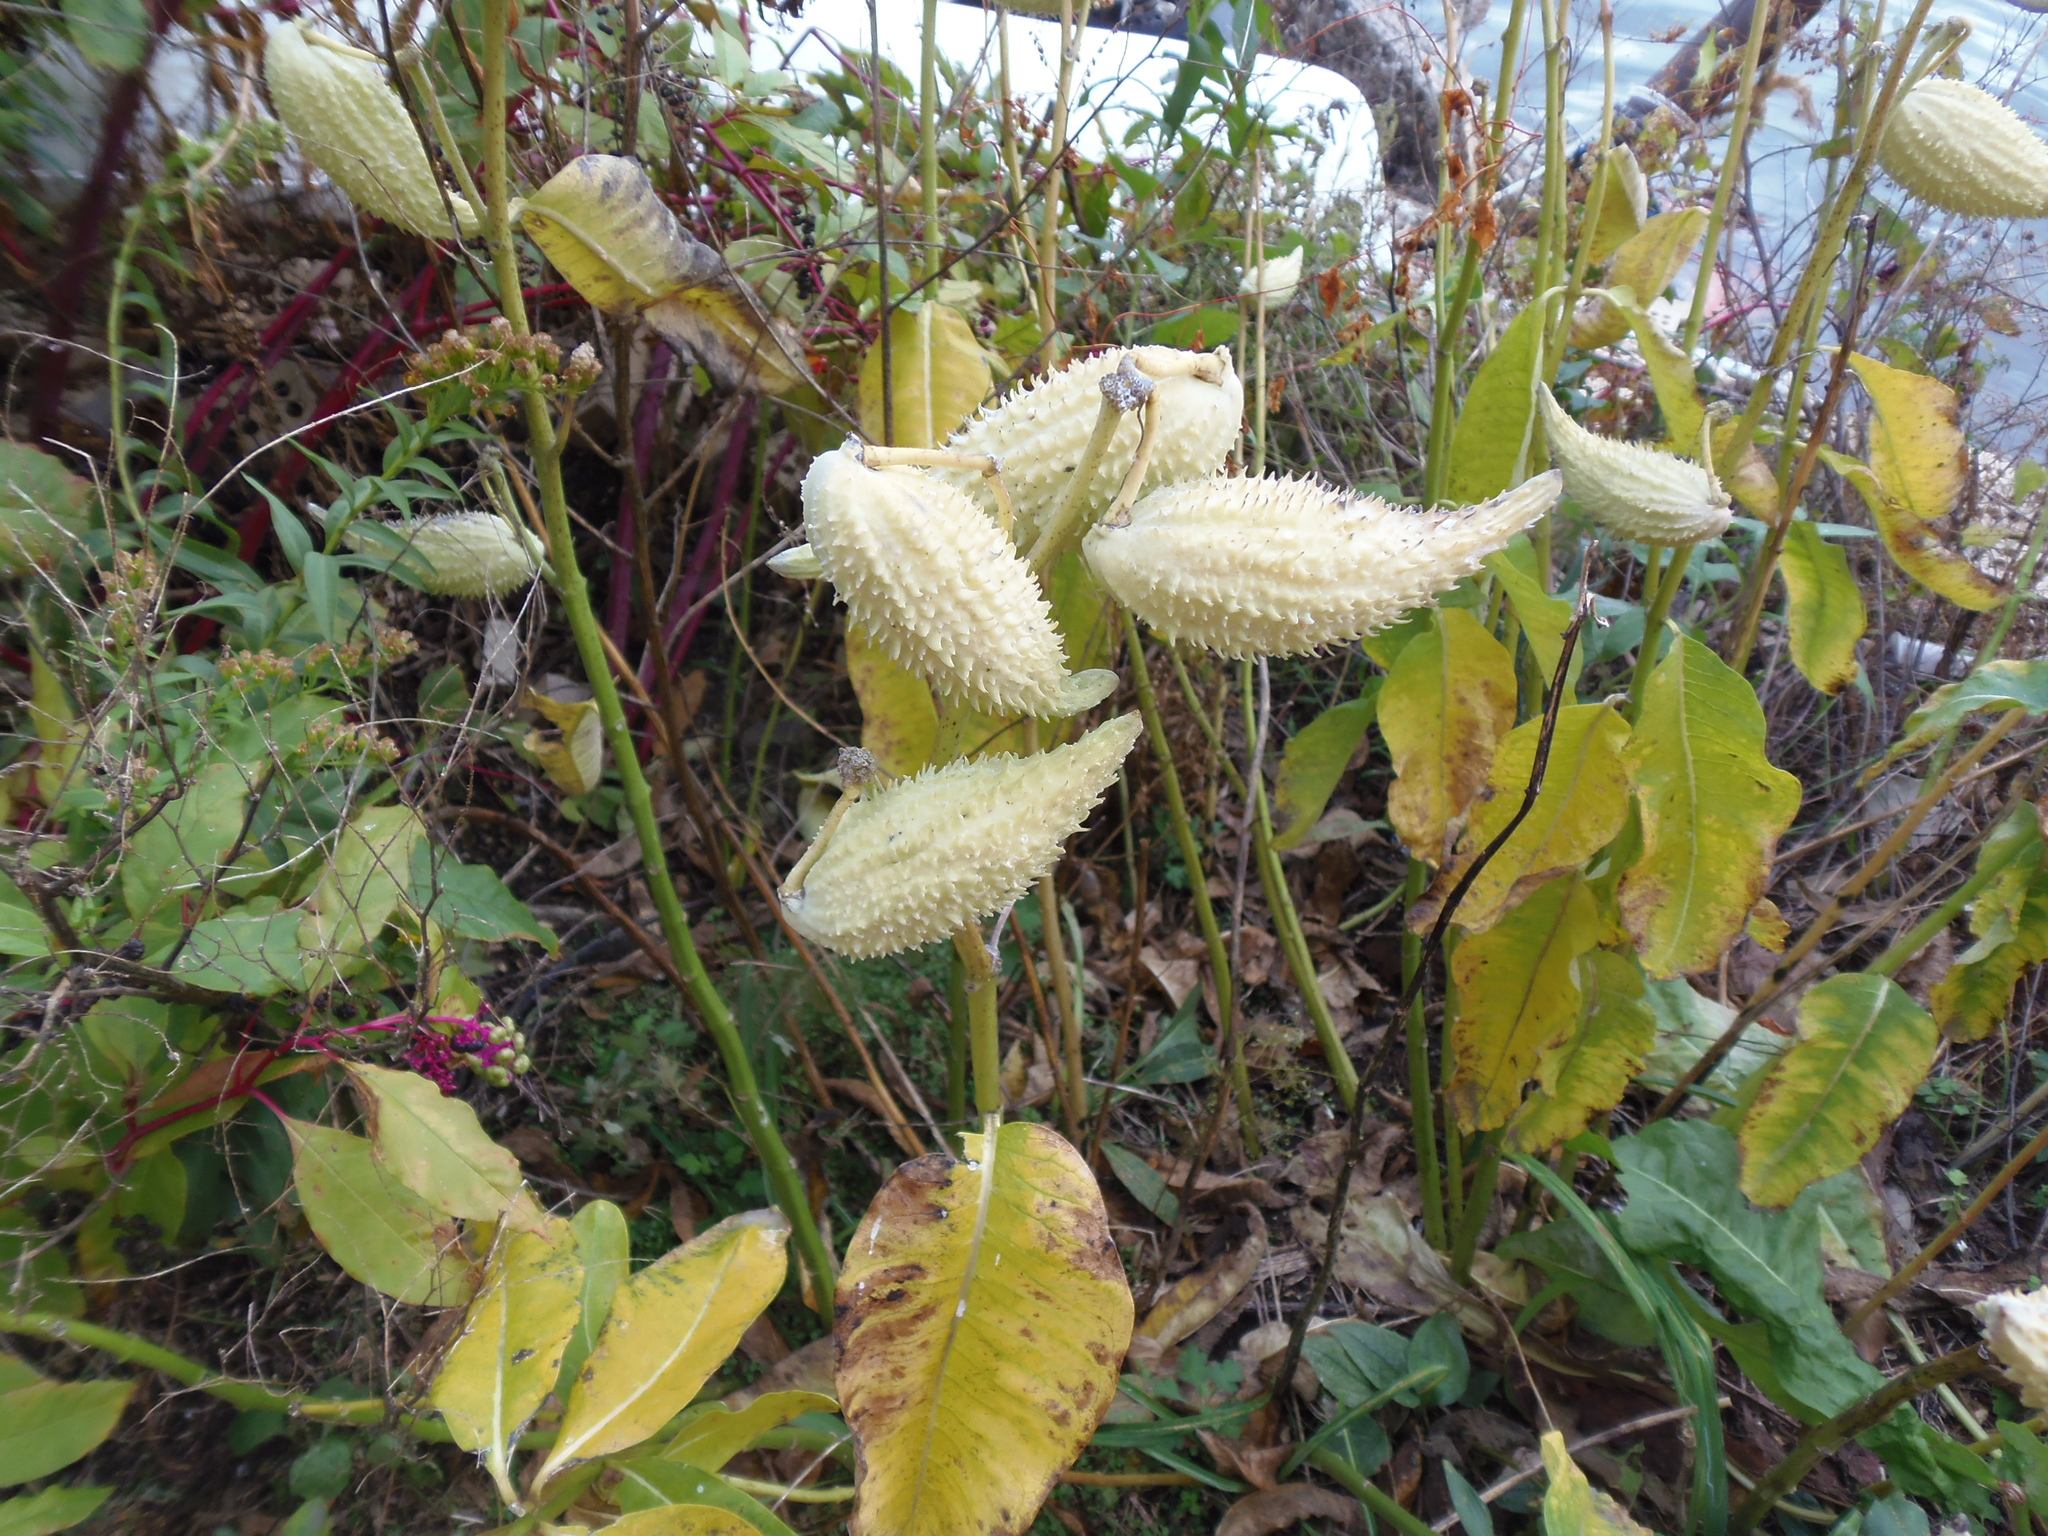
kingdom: Plantae
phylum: Tracheophyta
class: Magnoliopsida
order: Gentianales
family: Apocynaceae
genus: Asclepias
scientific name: Asclepias syriaca
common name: Common milkweed
